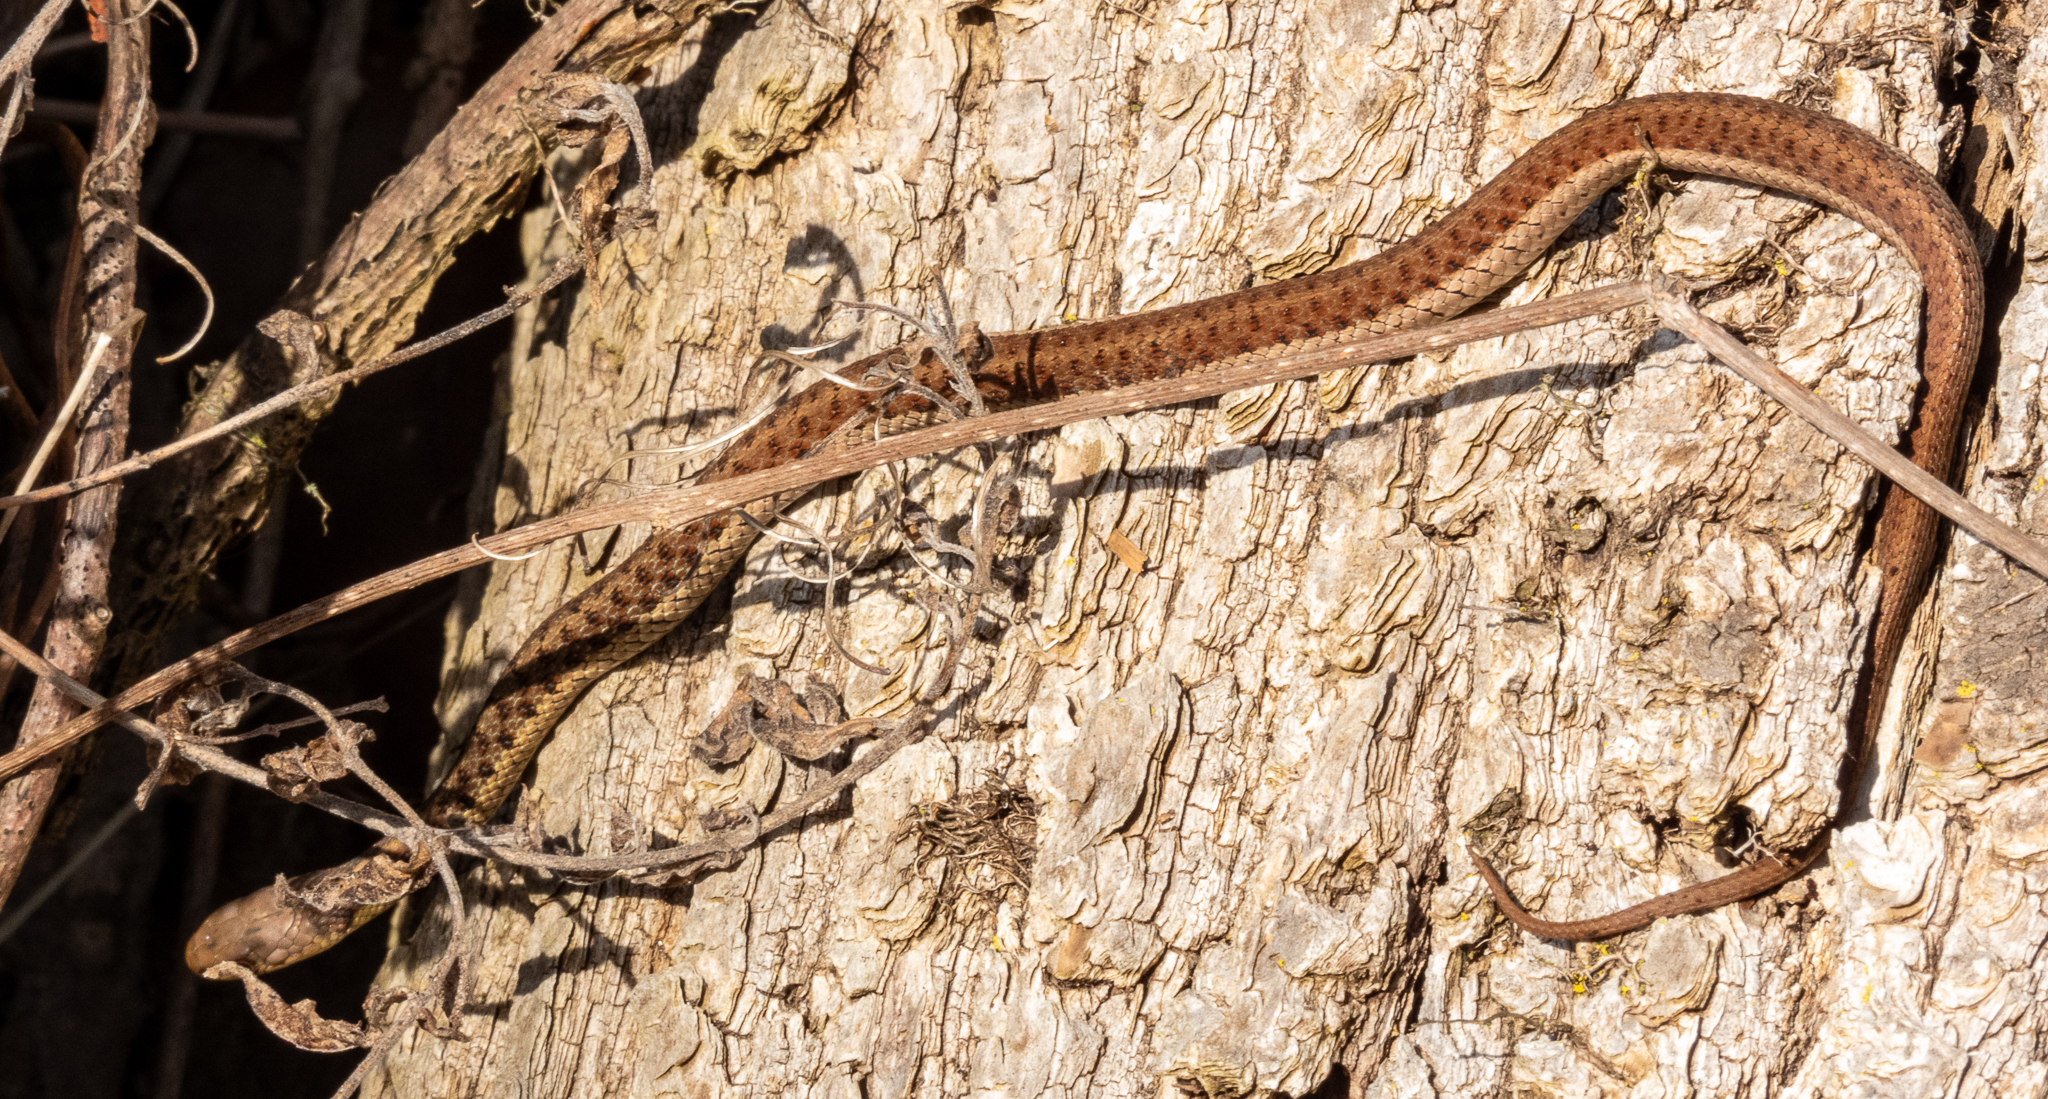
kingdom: Animalia
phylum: Chordata
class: Squamata
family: Colubridae
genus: Thamnophis
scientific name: Thamnophis sirtalis
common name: Common garter snake
